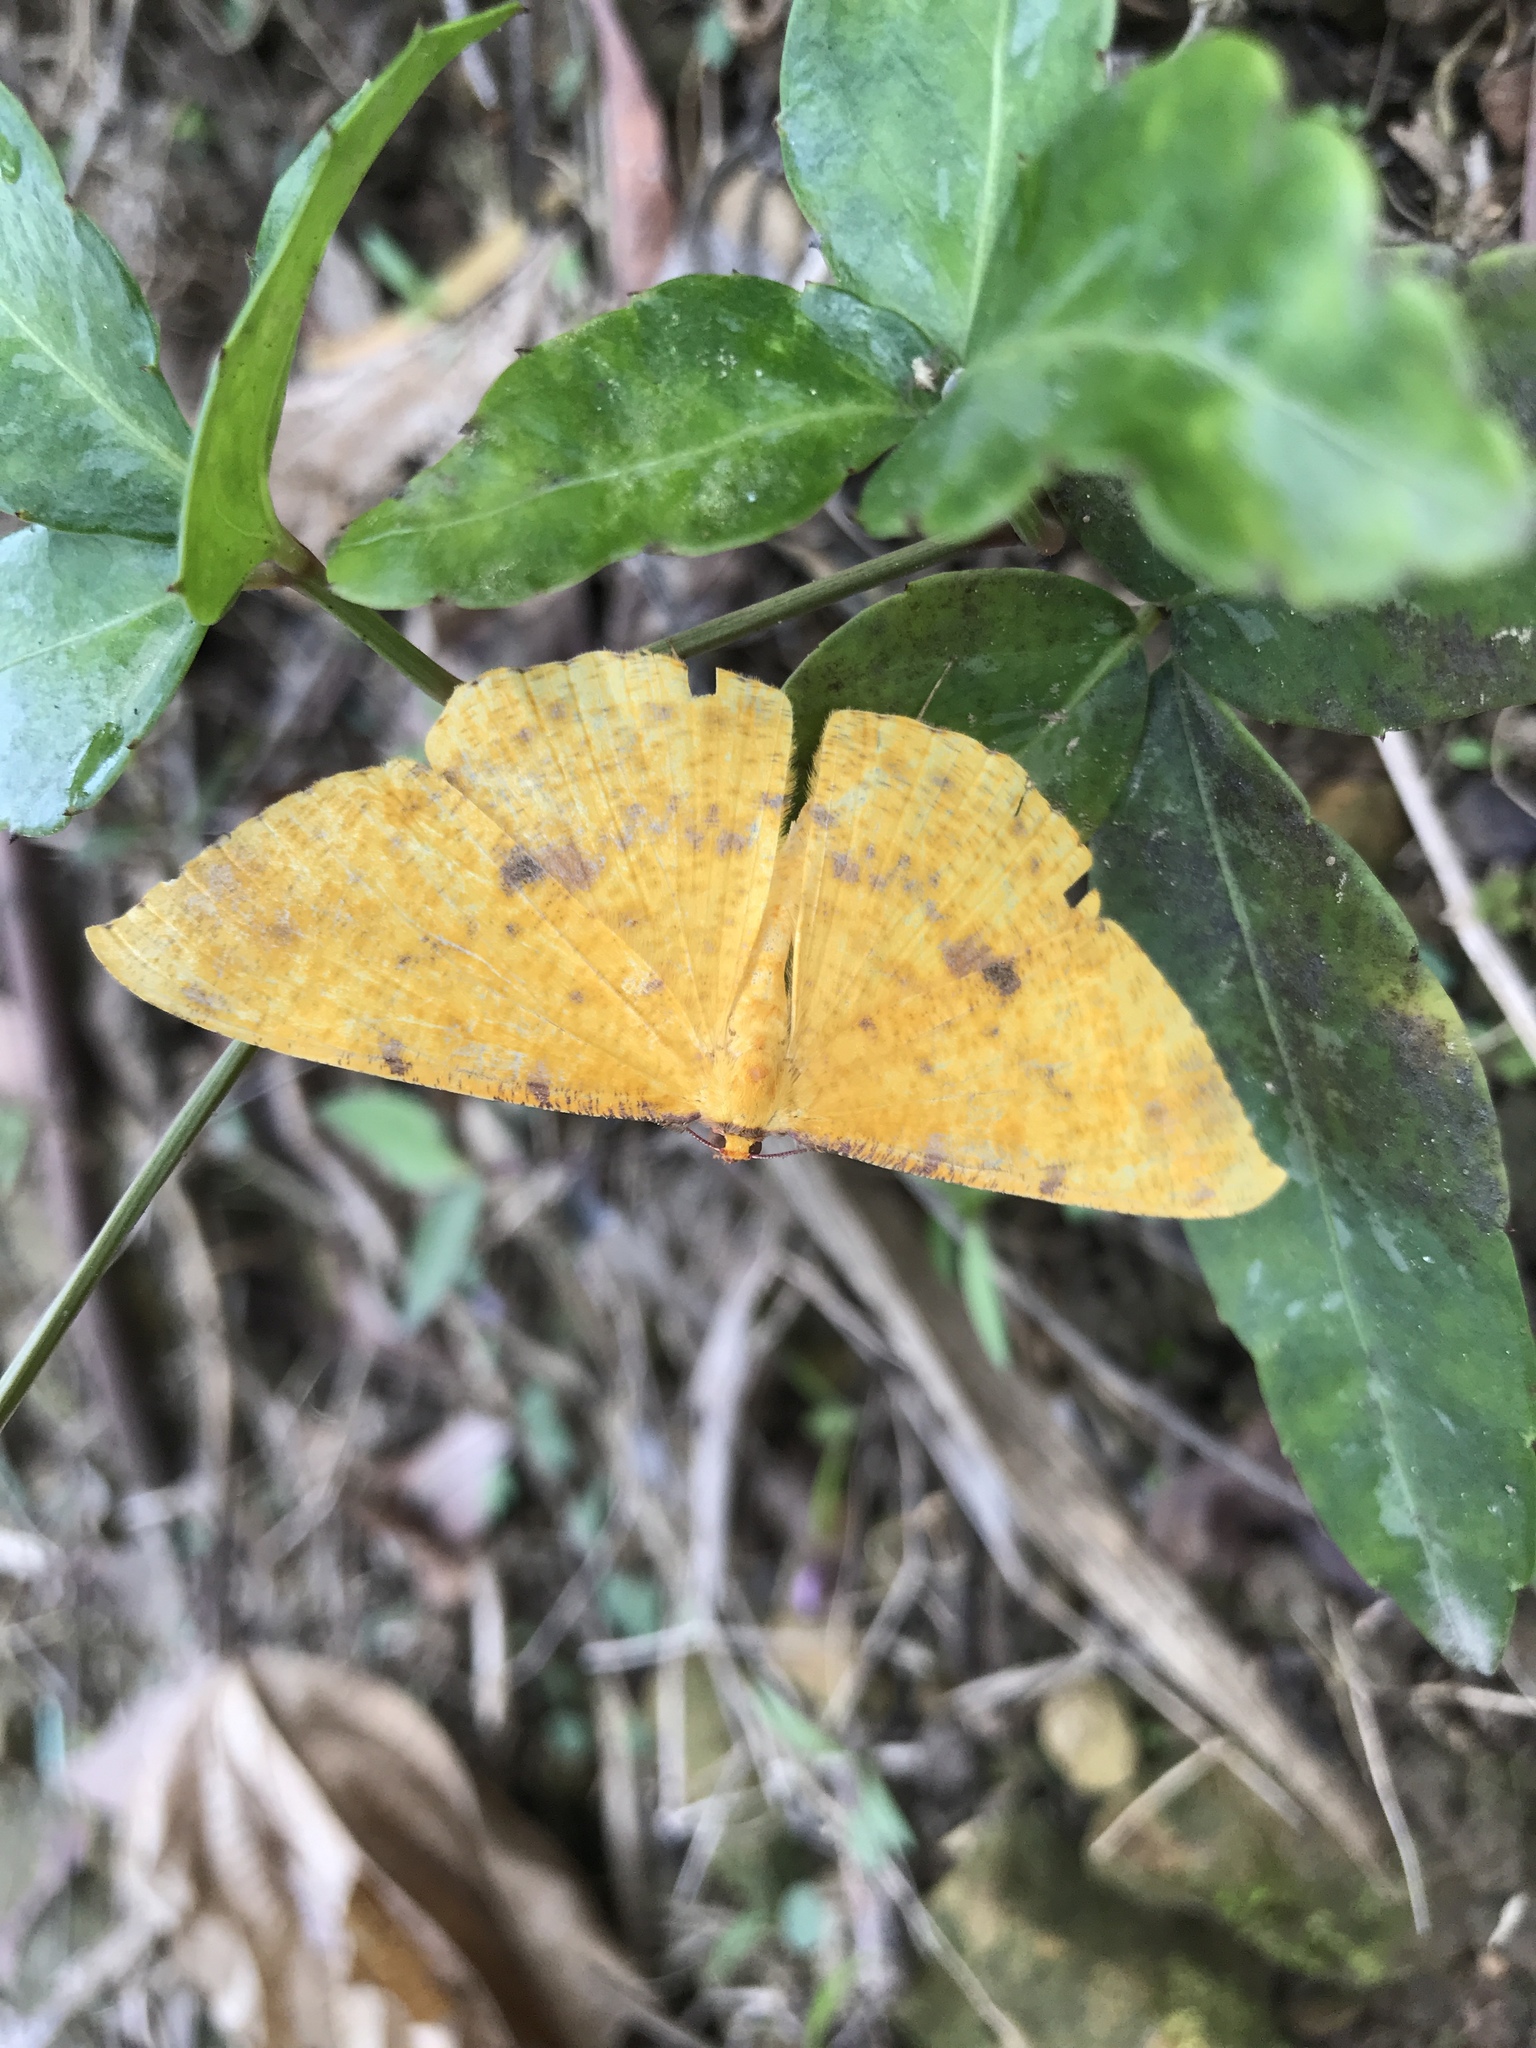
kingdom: Animalia
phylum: Arthropoda
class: Insecta
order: Lepidoptera
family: Geometridae
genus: Eumelea
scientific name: Eumelea ludovicata
